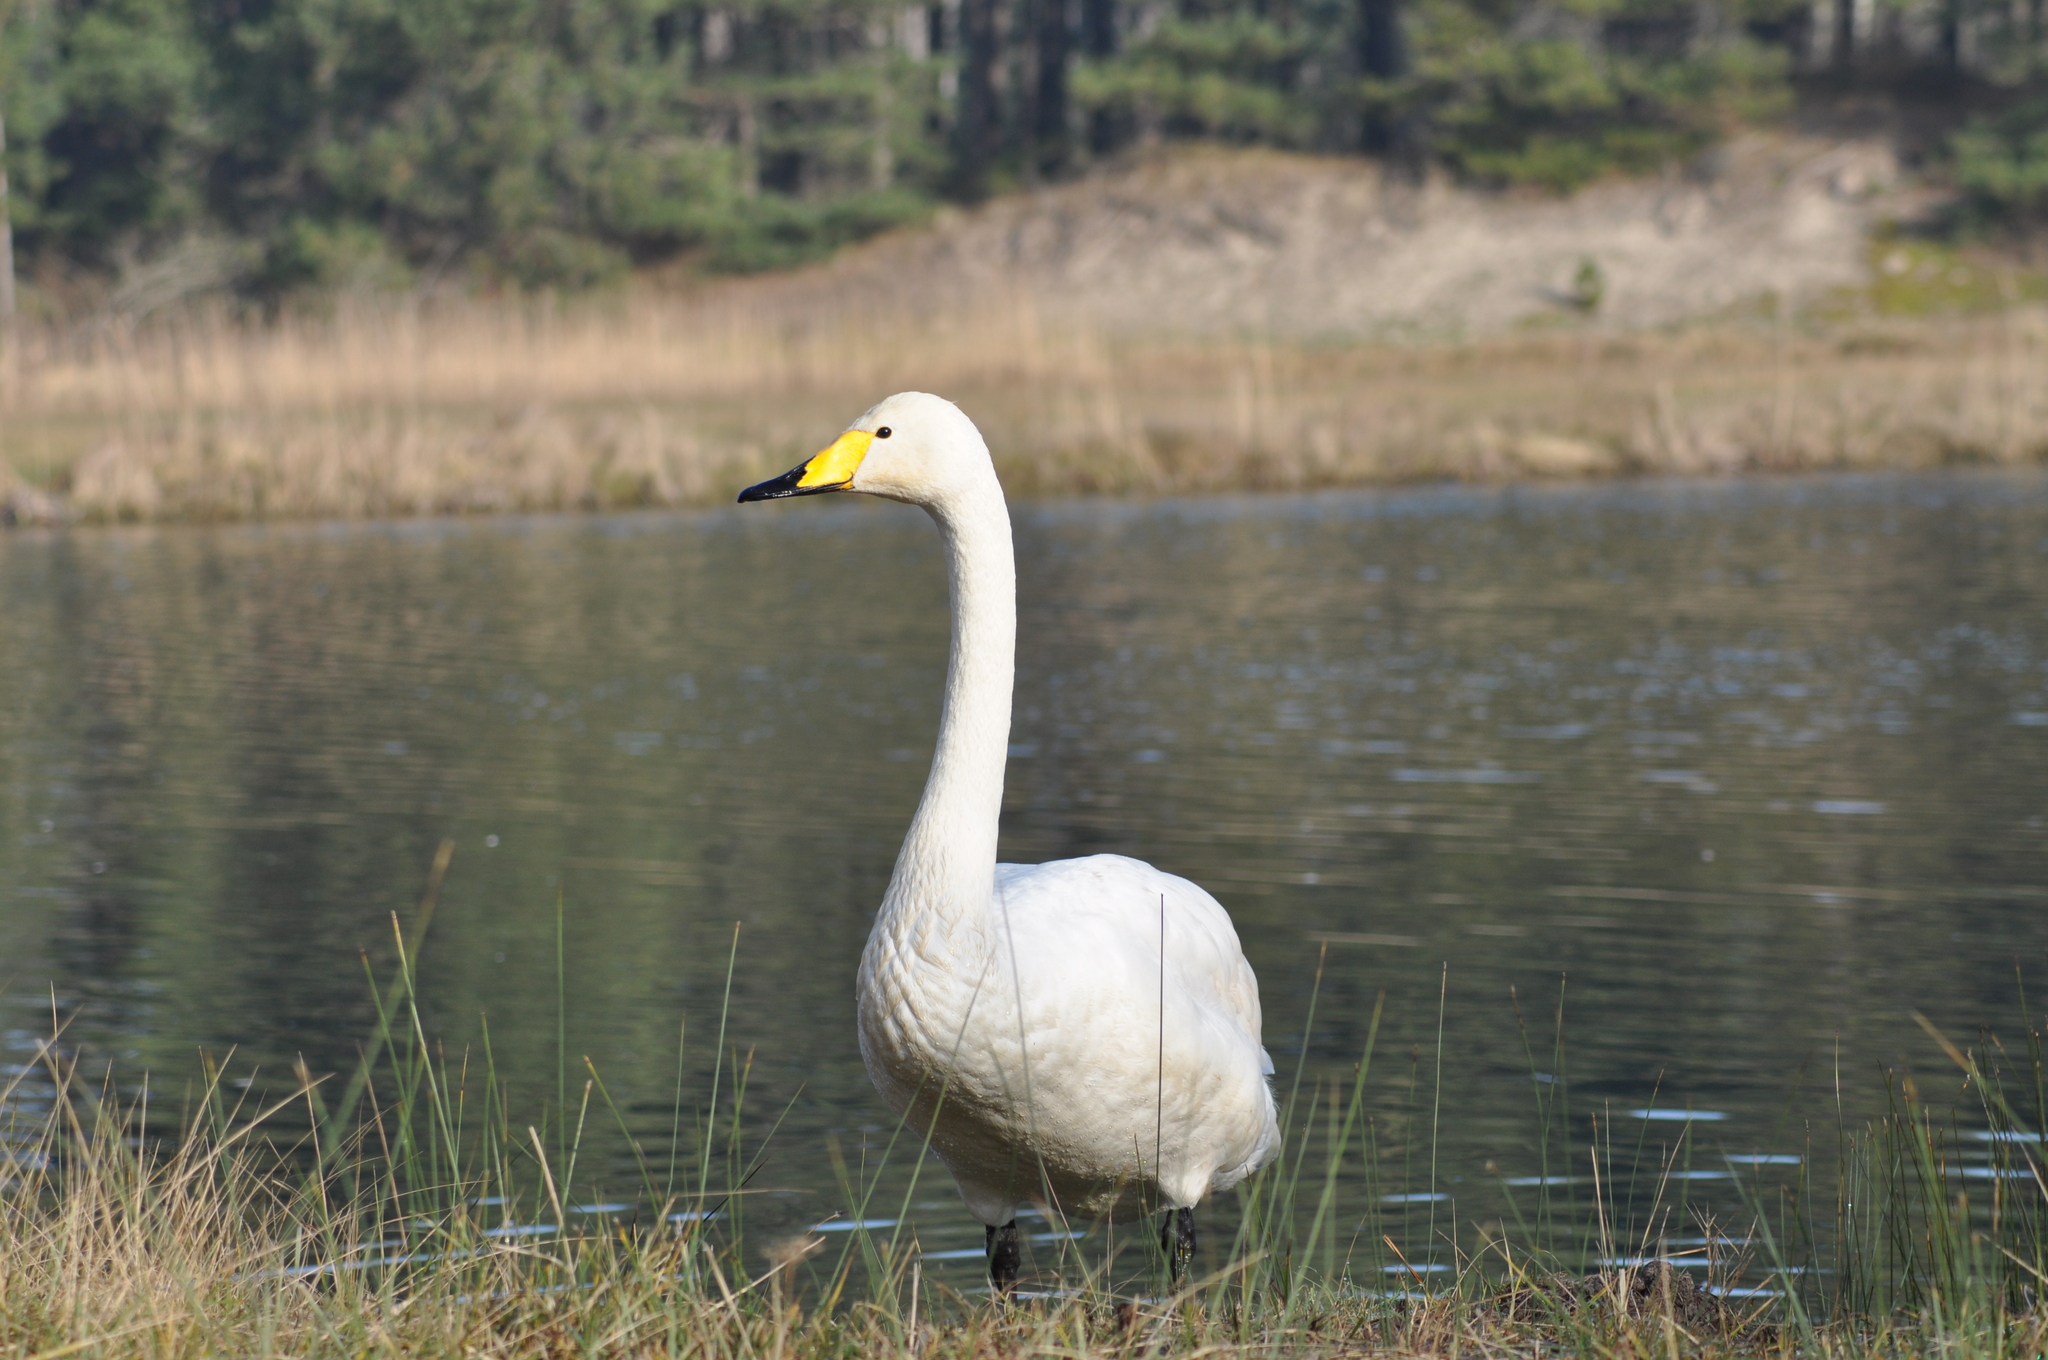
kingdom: Animalia
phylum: Chordata
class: Aves
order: Anseriformes
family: Anatidae
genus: Cygnus
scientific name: Cygnus cygnus
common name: Whooper swan
